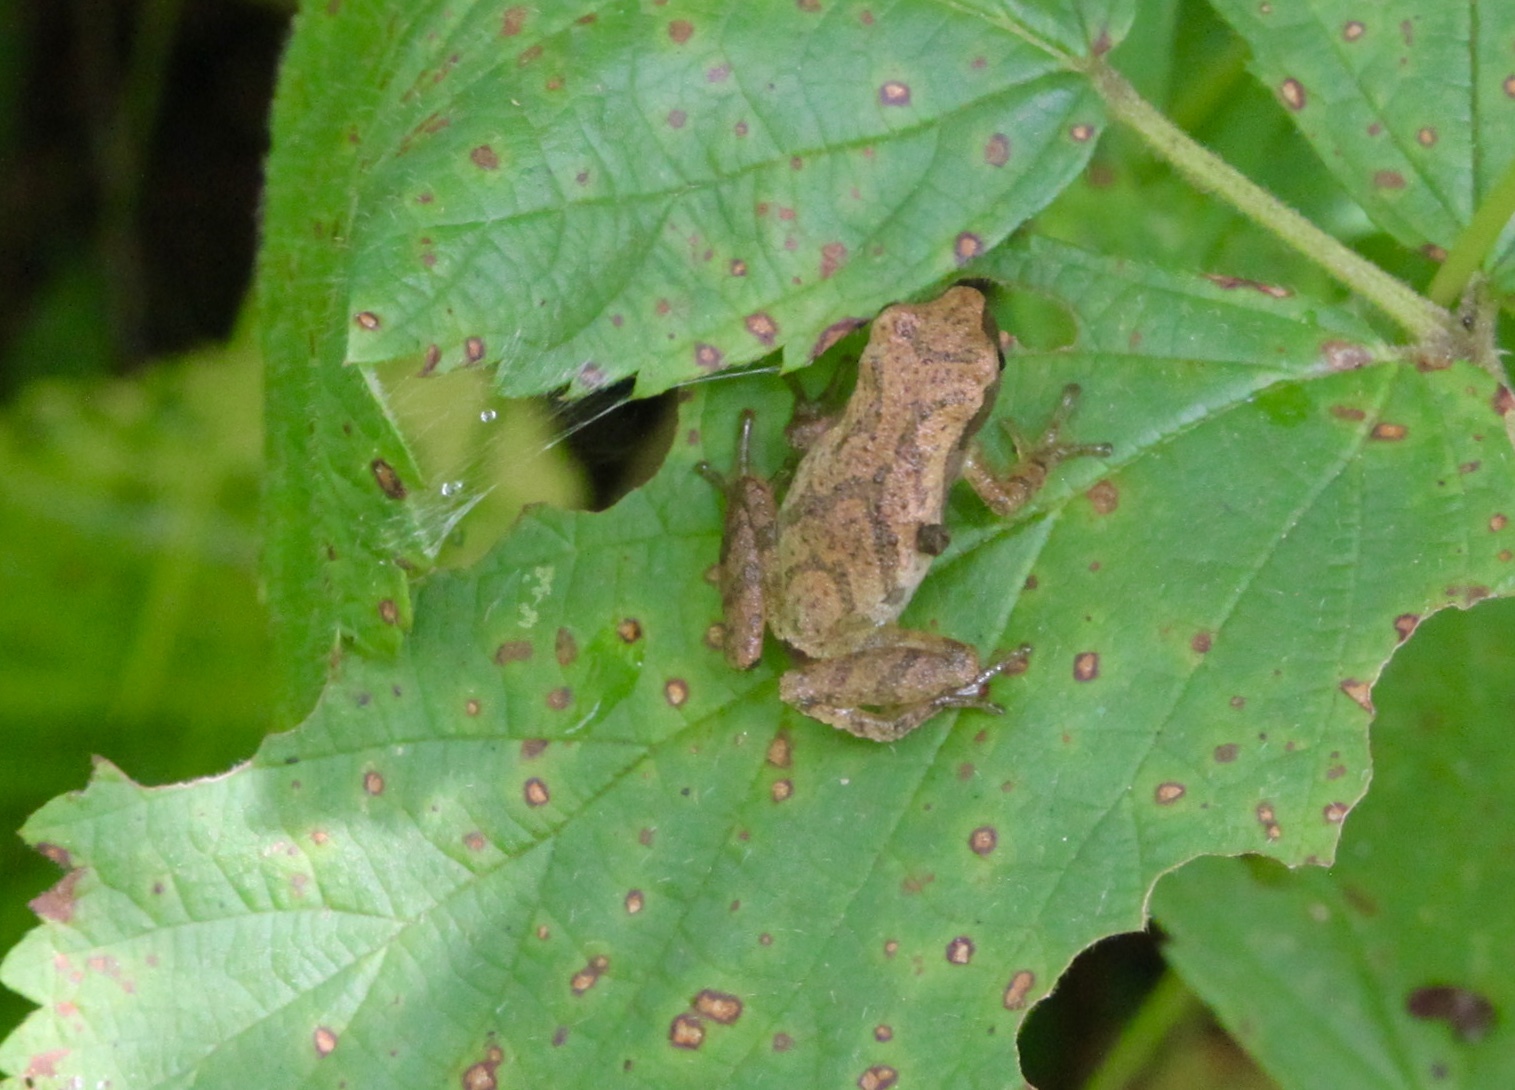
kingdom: Animalia
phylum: Chordata
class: Amphibia
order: Anura
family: Hylidae
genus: Pseudacris
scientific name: Pseudacris crucifer
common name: Spring peeper
